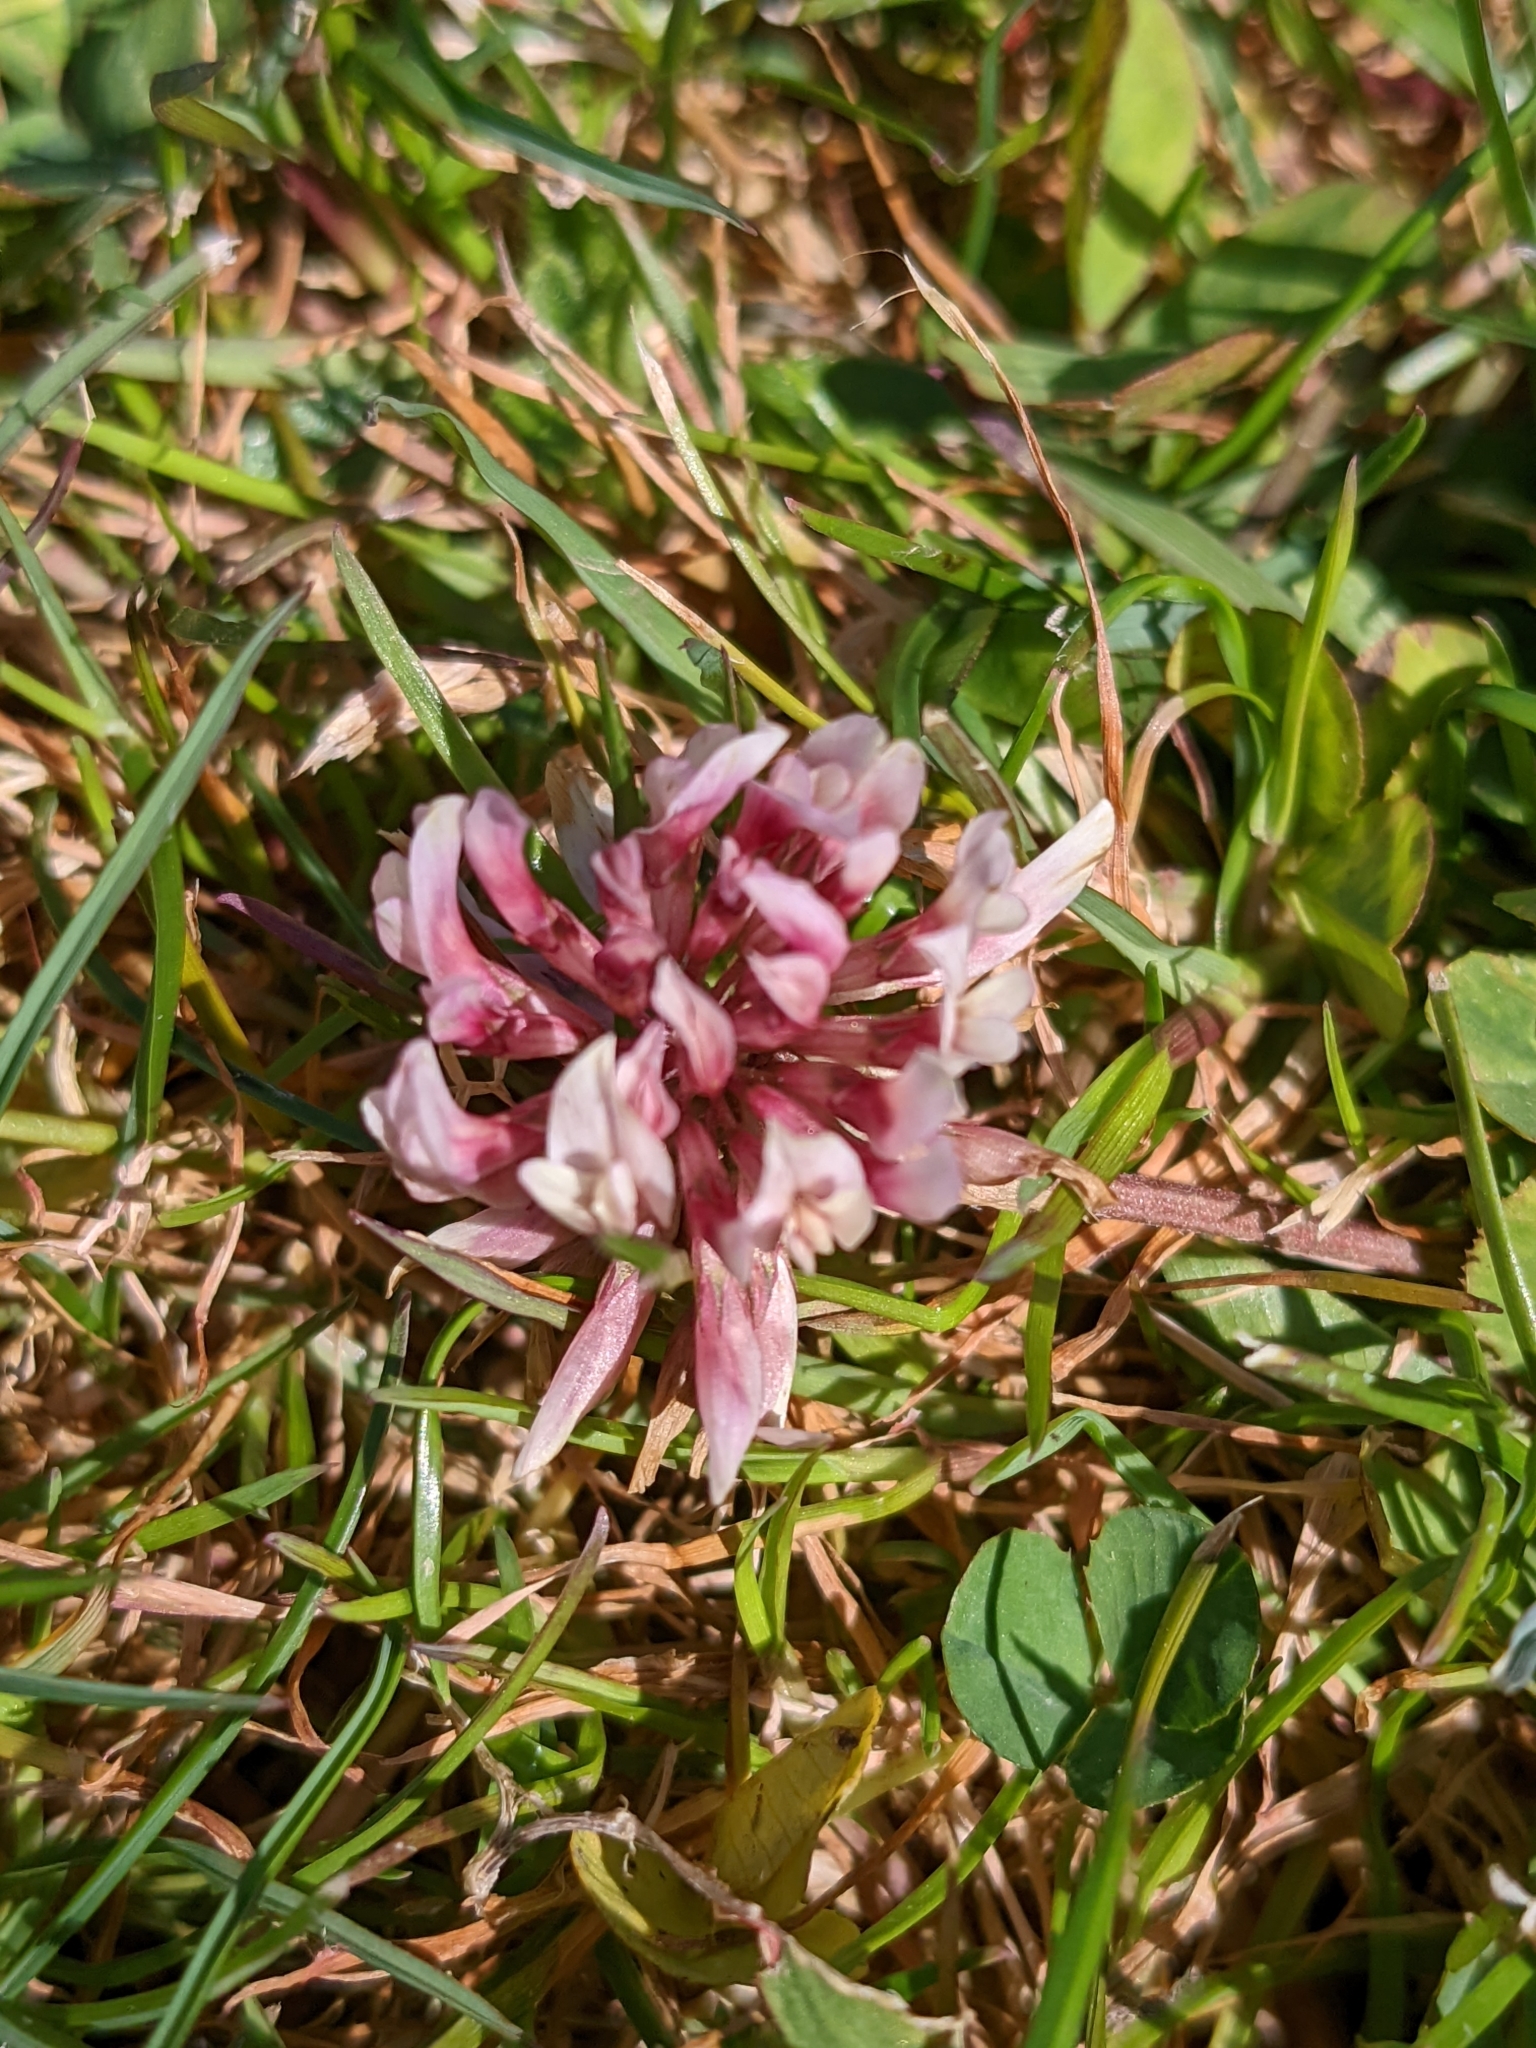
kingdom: Plantae
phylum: Tracheophyta
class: Magnoliopsida
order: Fabales
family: Fabaceae
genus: Trifolium
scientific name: Trifolium repens
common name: White clover
